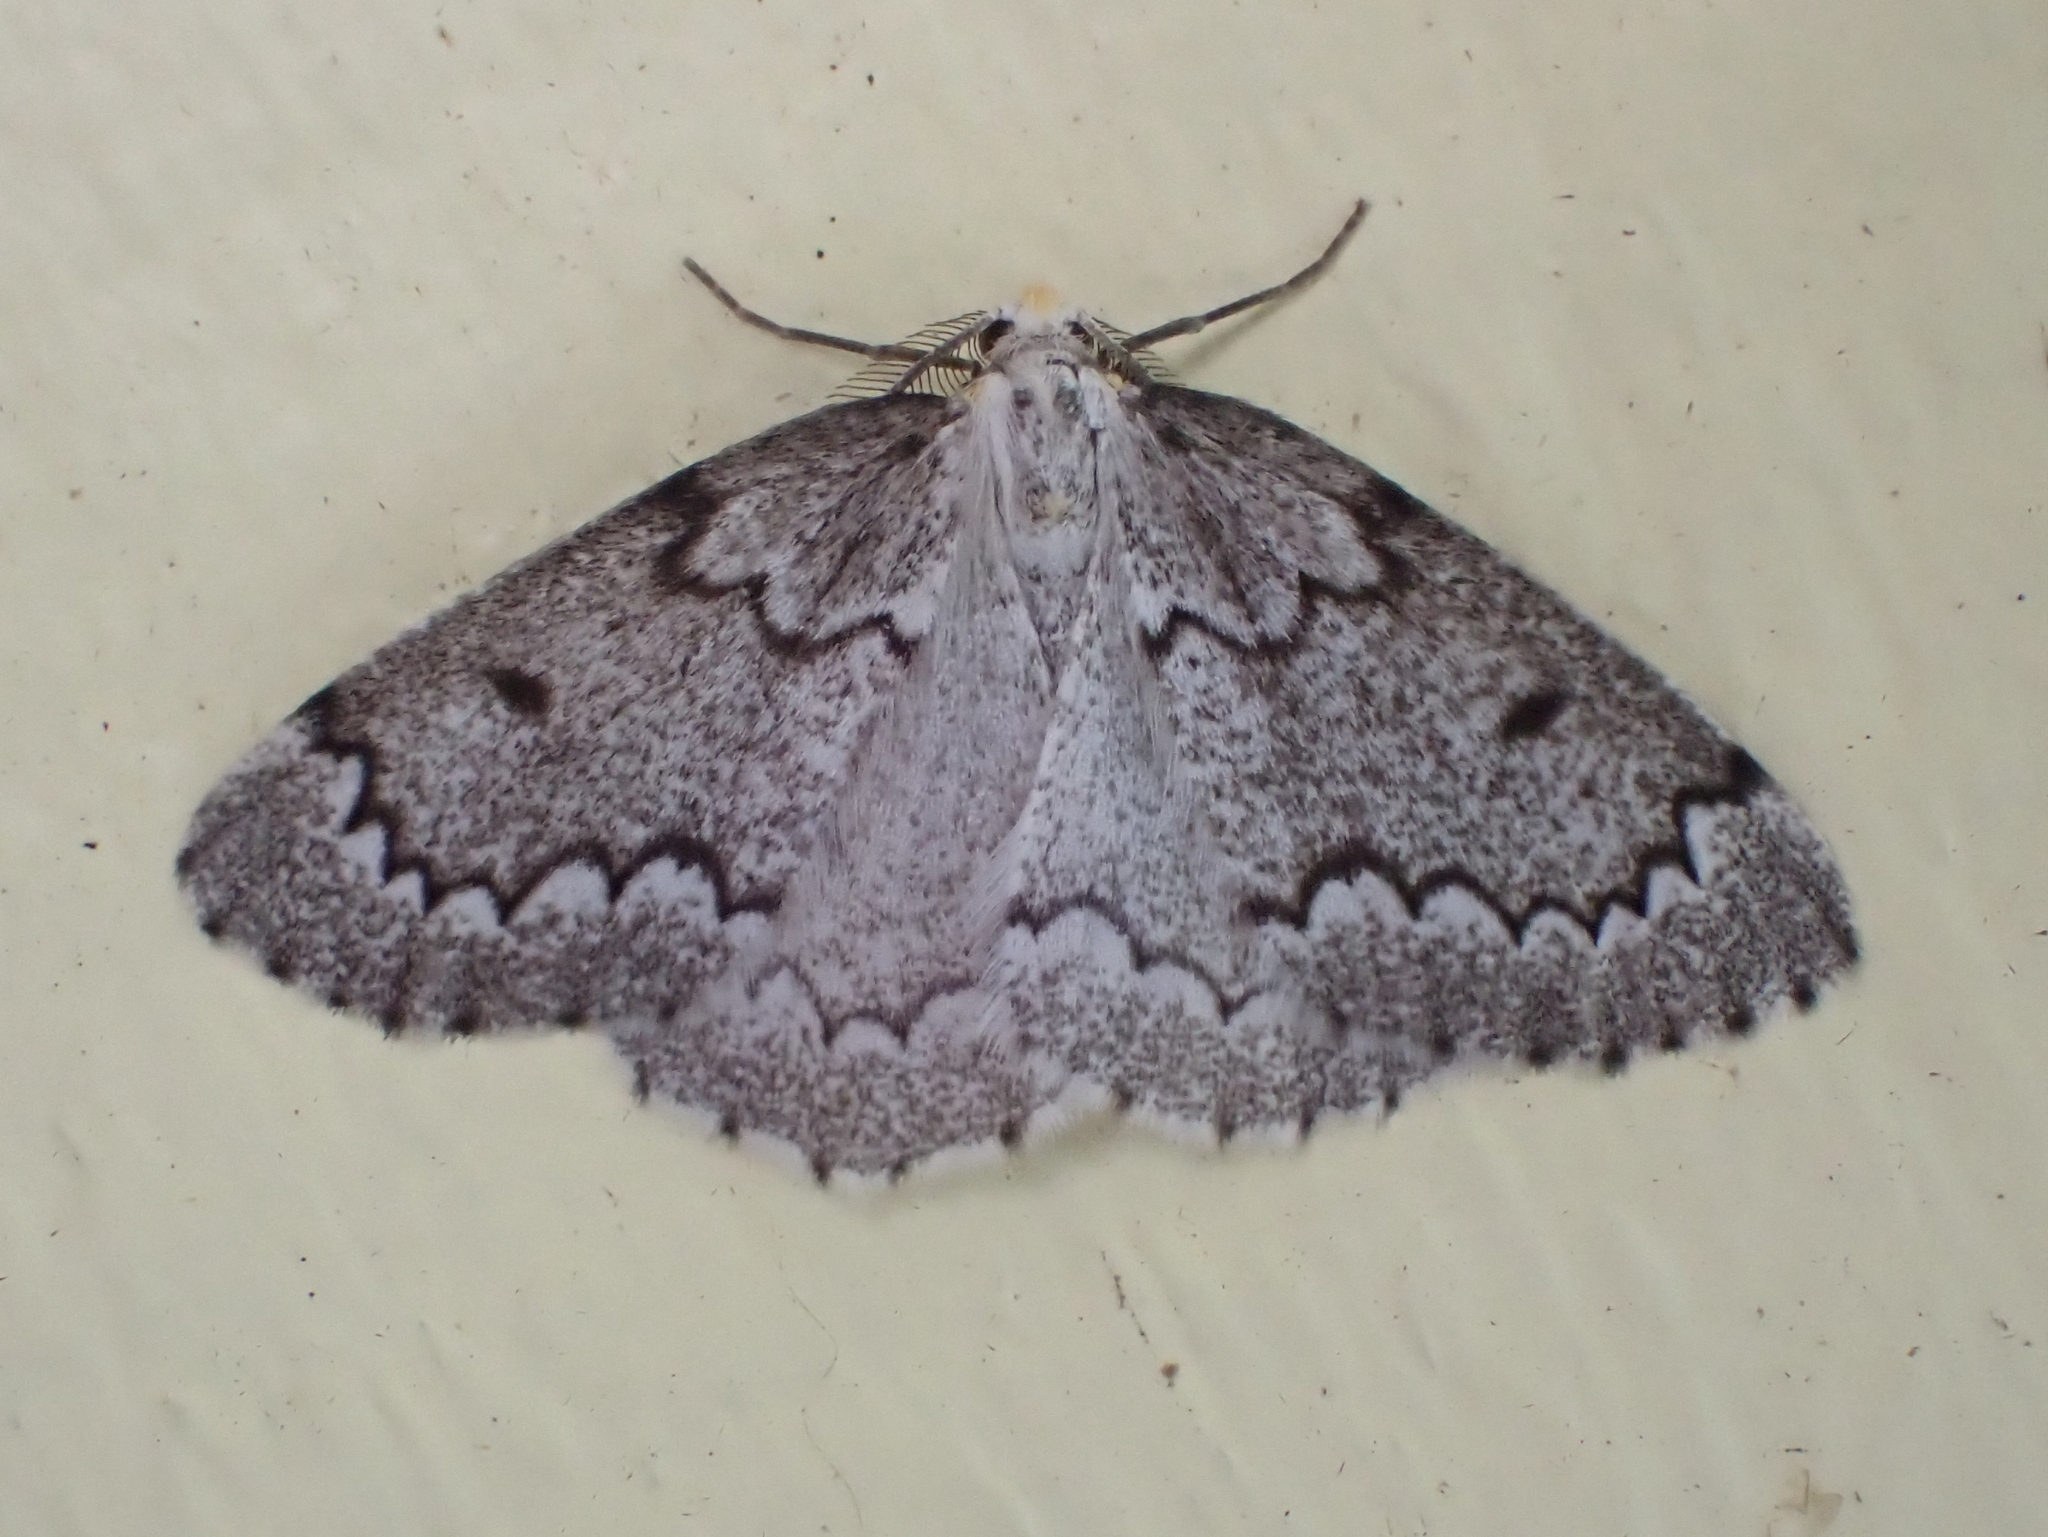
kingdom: Animalia
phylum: Arthropoda
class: Insecta
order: Lepidoptera
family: Geometridae
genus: Nepytia
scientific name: Nepytia canosaria
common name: False hemlock looper
